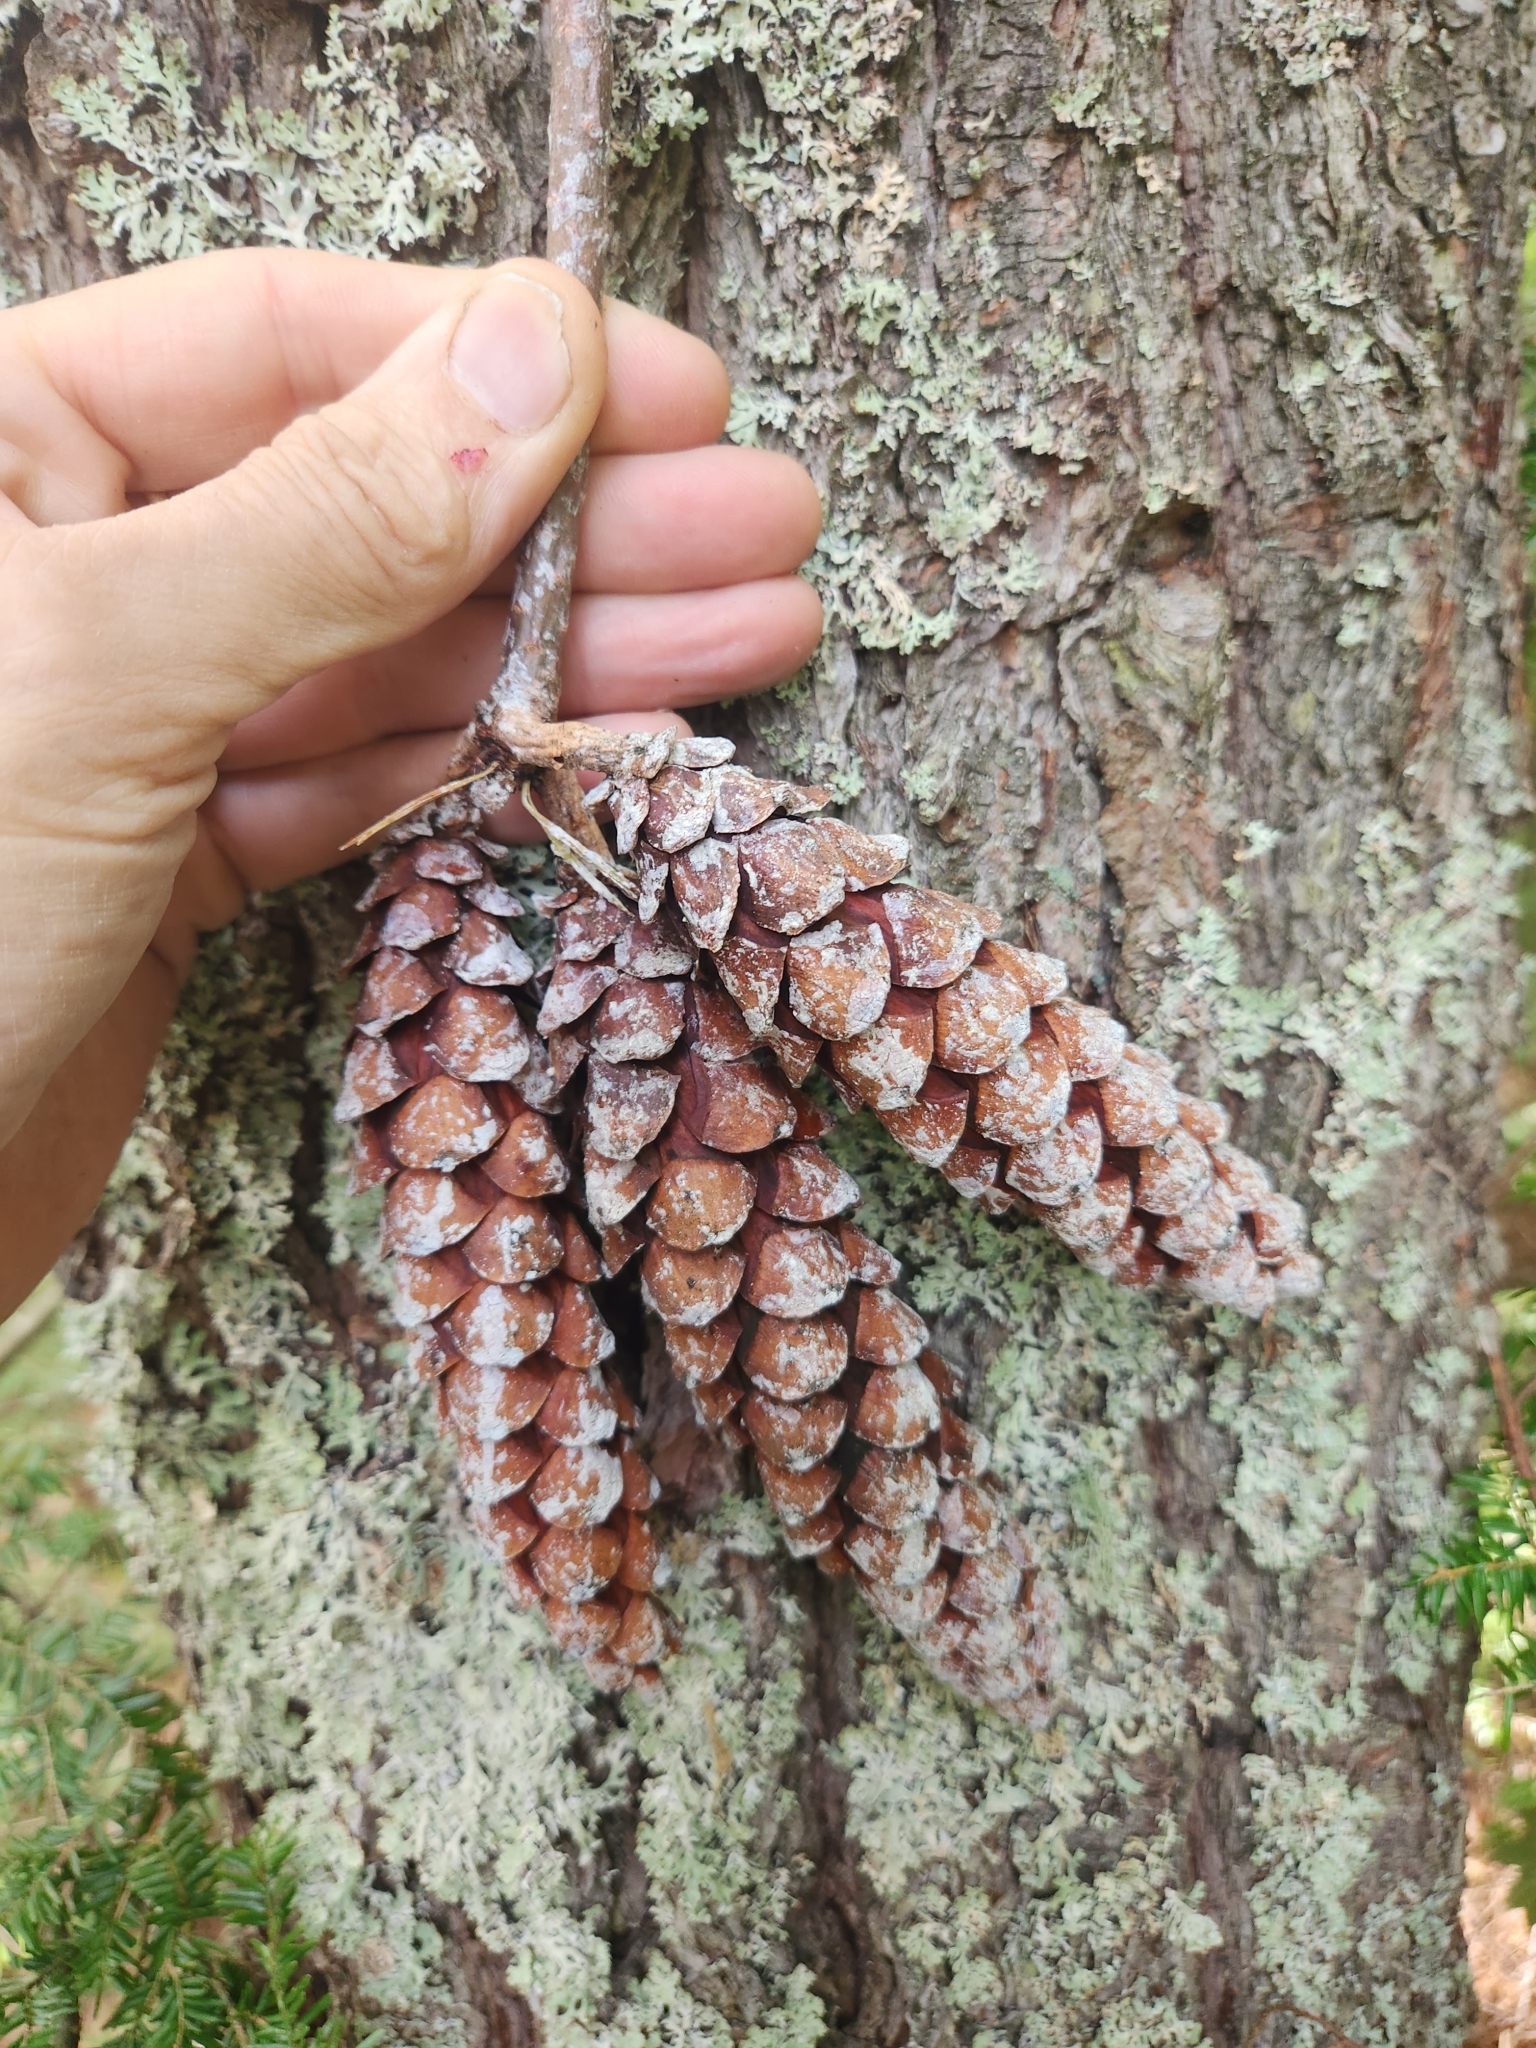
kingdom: Plantae
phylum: Tracheophyta
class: Pinopsida
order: Pinales
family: Pinaceae
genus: Pinus
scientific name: Pinus strobus
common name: Weymouth pine
